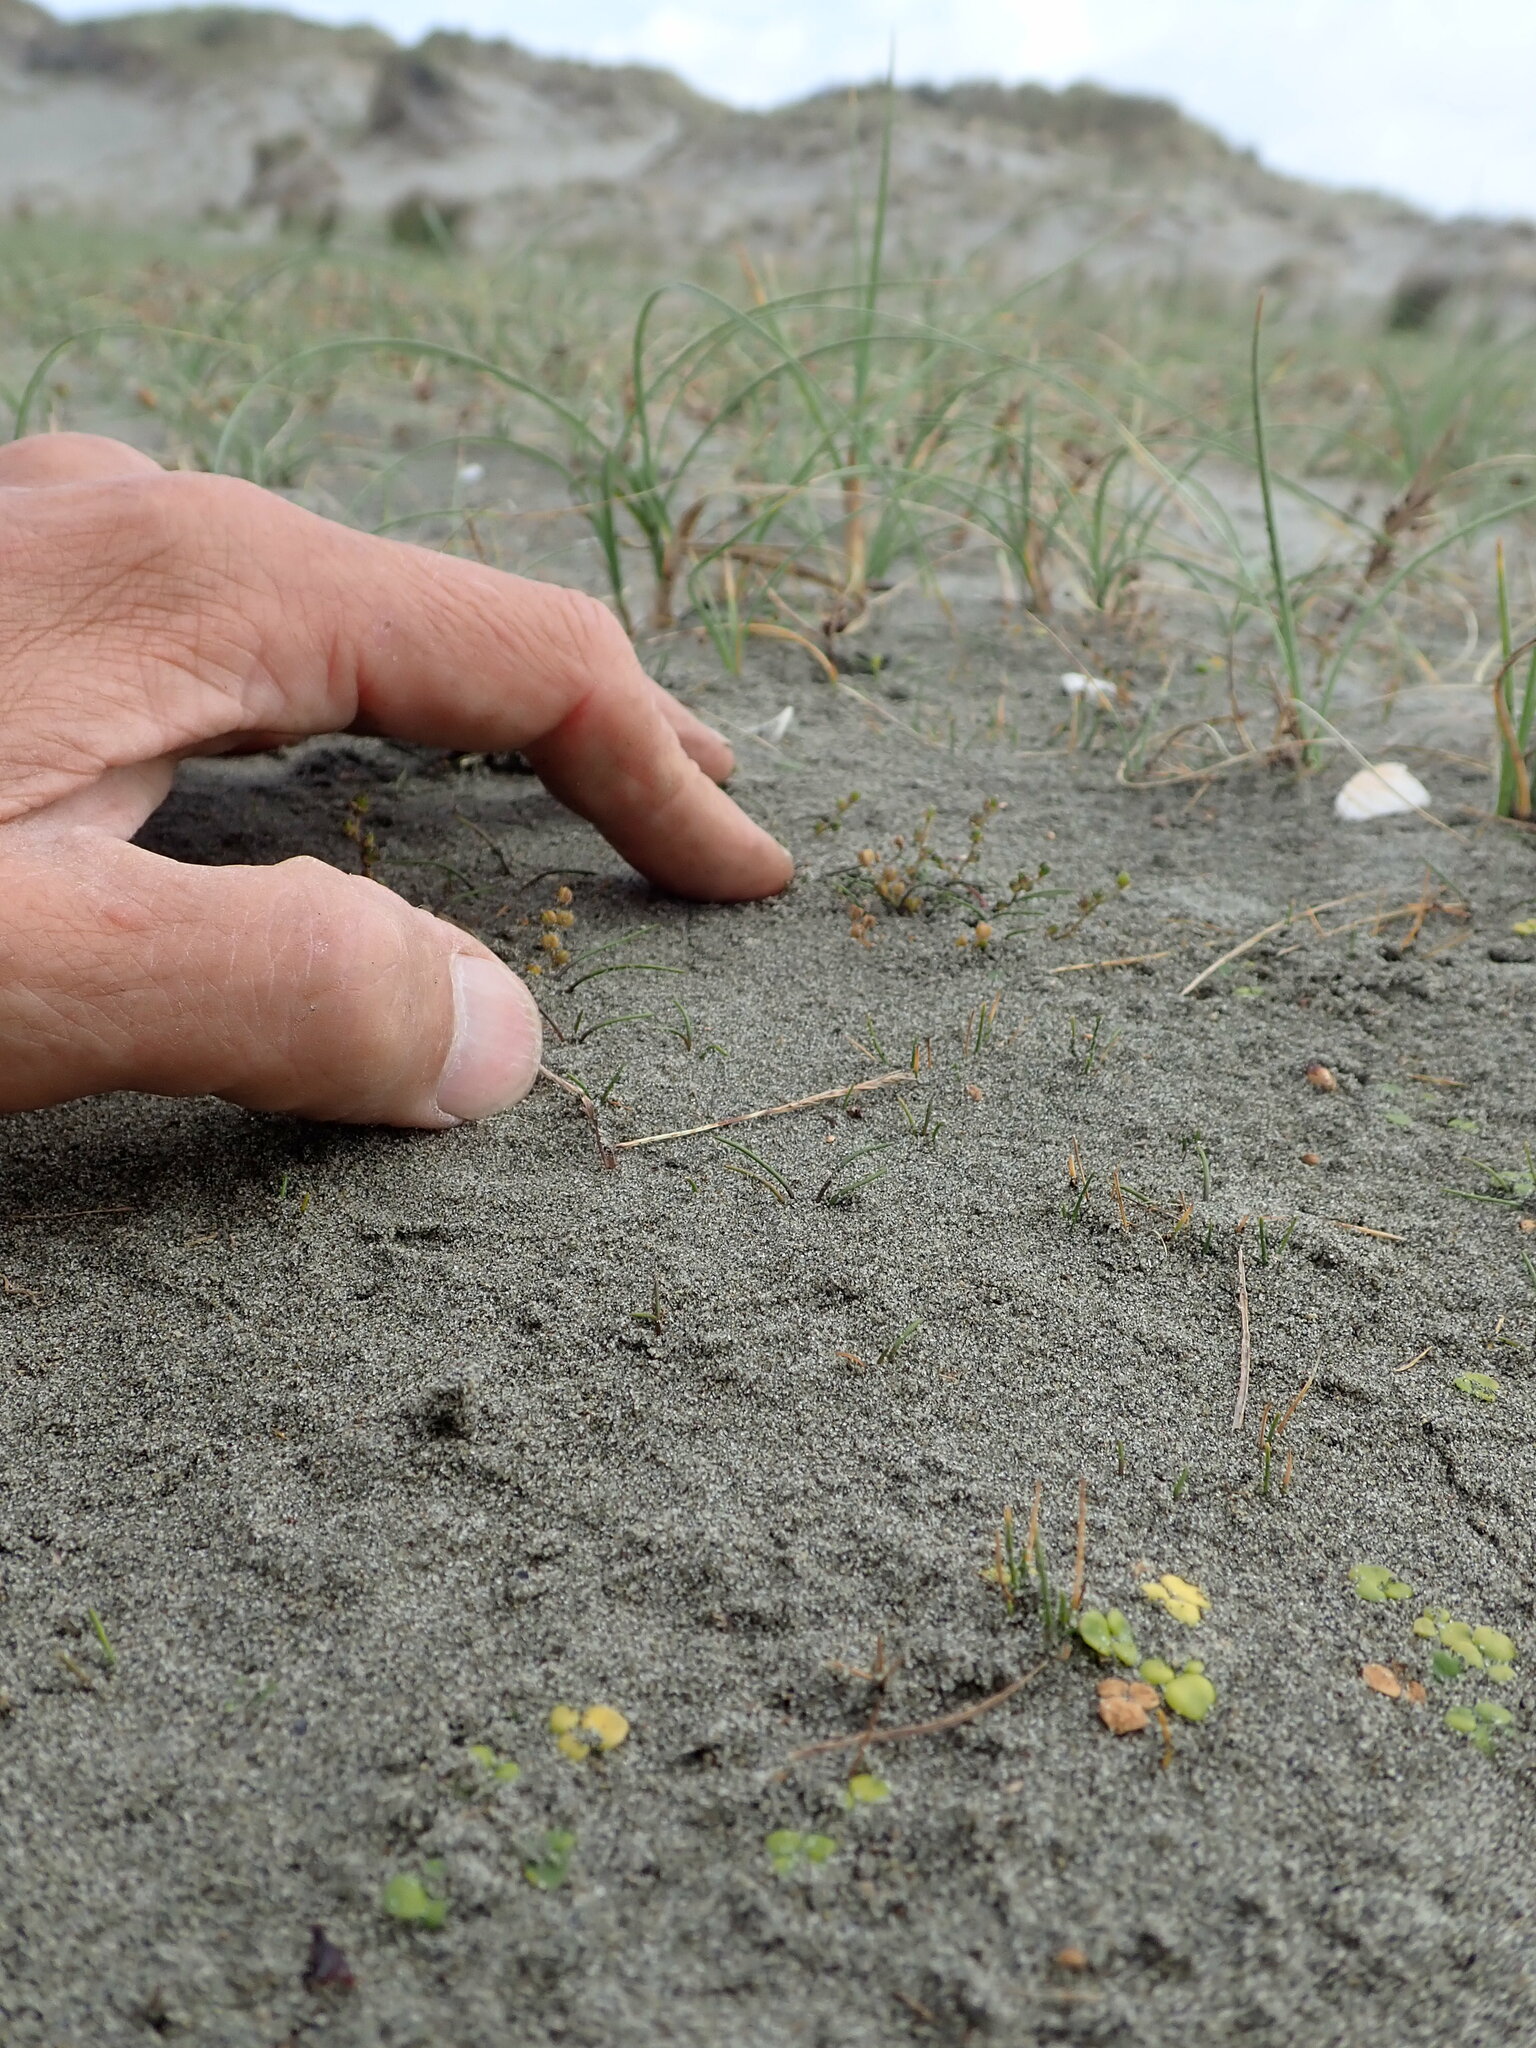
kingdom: Plantae
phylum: Tracheophyta
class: Liliopsida
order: Alismatales
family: Juncaginaceae
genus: Triglochin
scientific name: Triglochin striata
